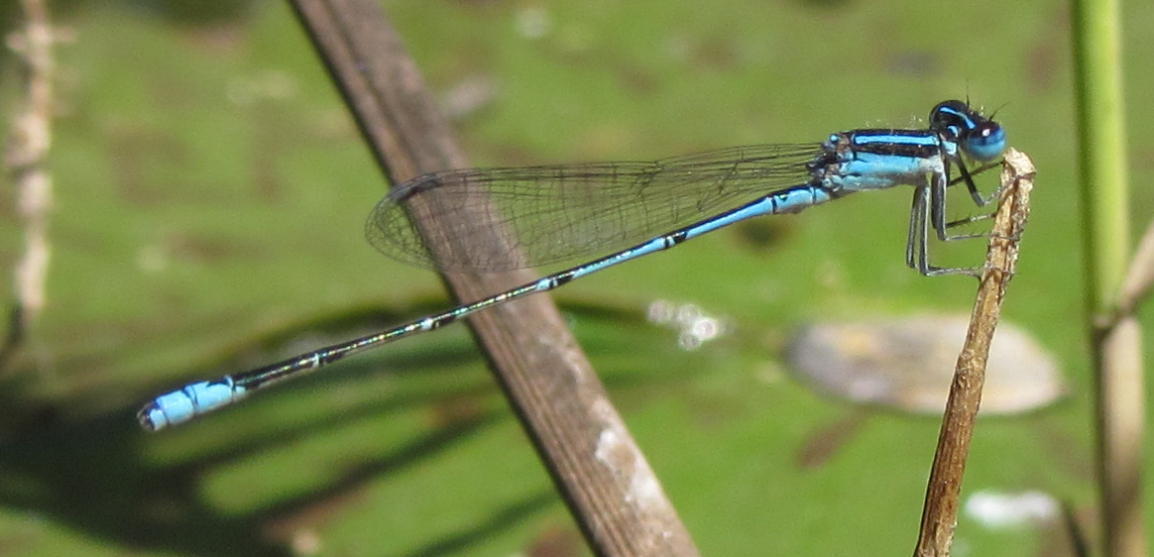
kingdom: Animalia
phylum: Arthropoda
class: Insecta
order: Odonata
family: Coenagrionidae
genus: Azuragrion
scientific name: Azuragrion nigridorsum
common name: Sailing azuret
